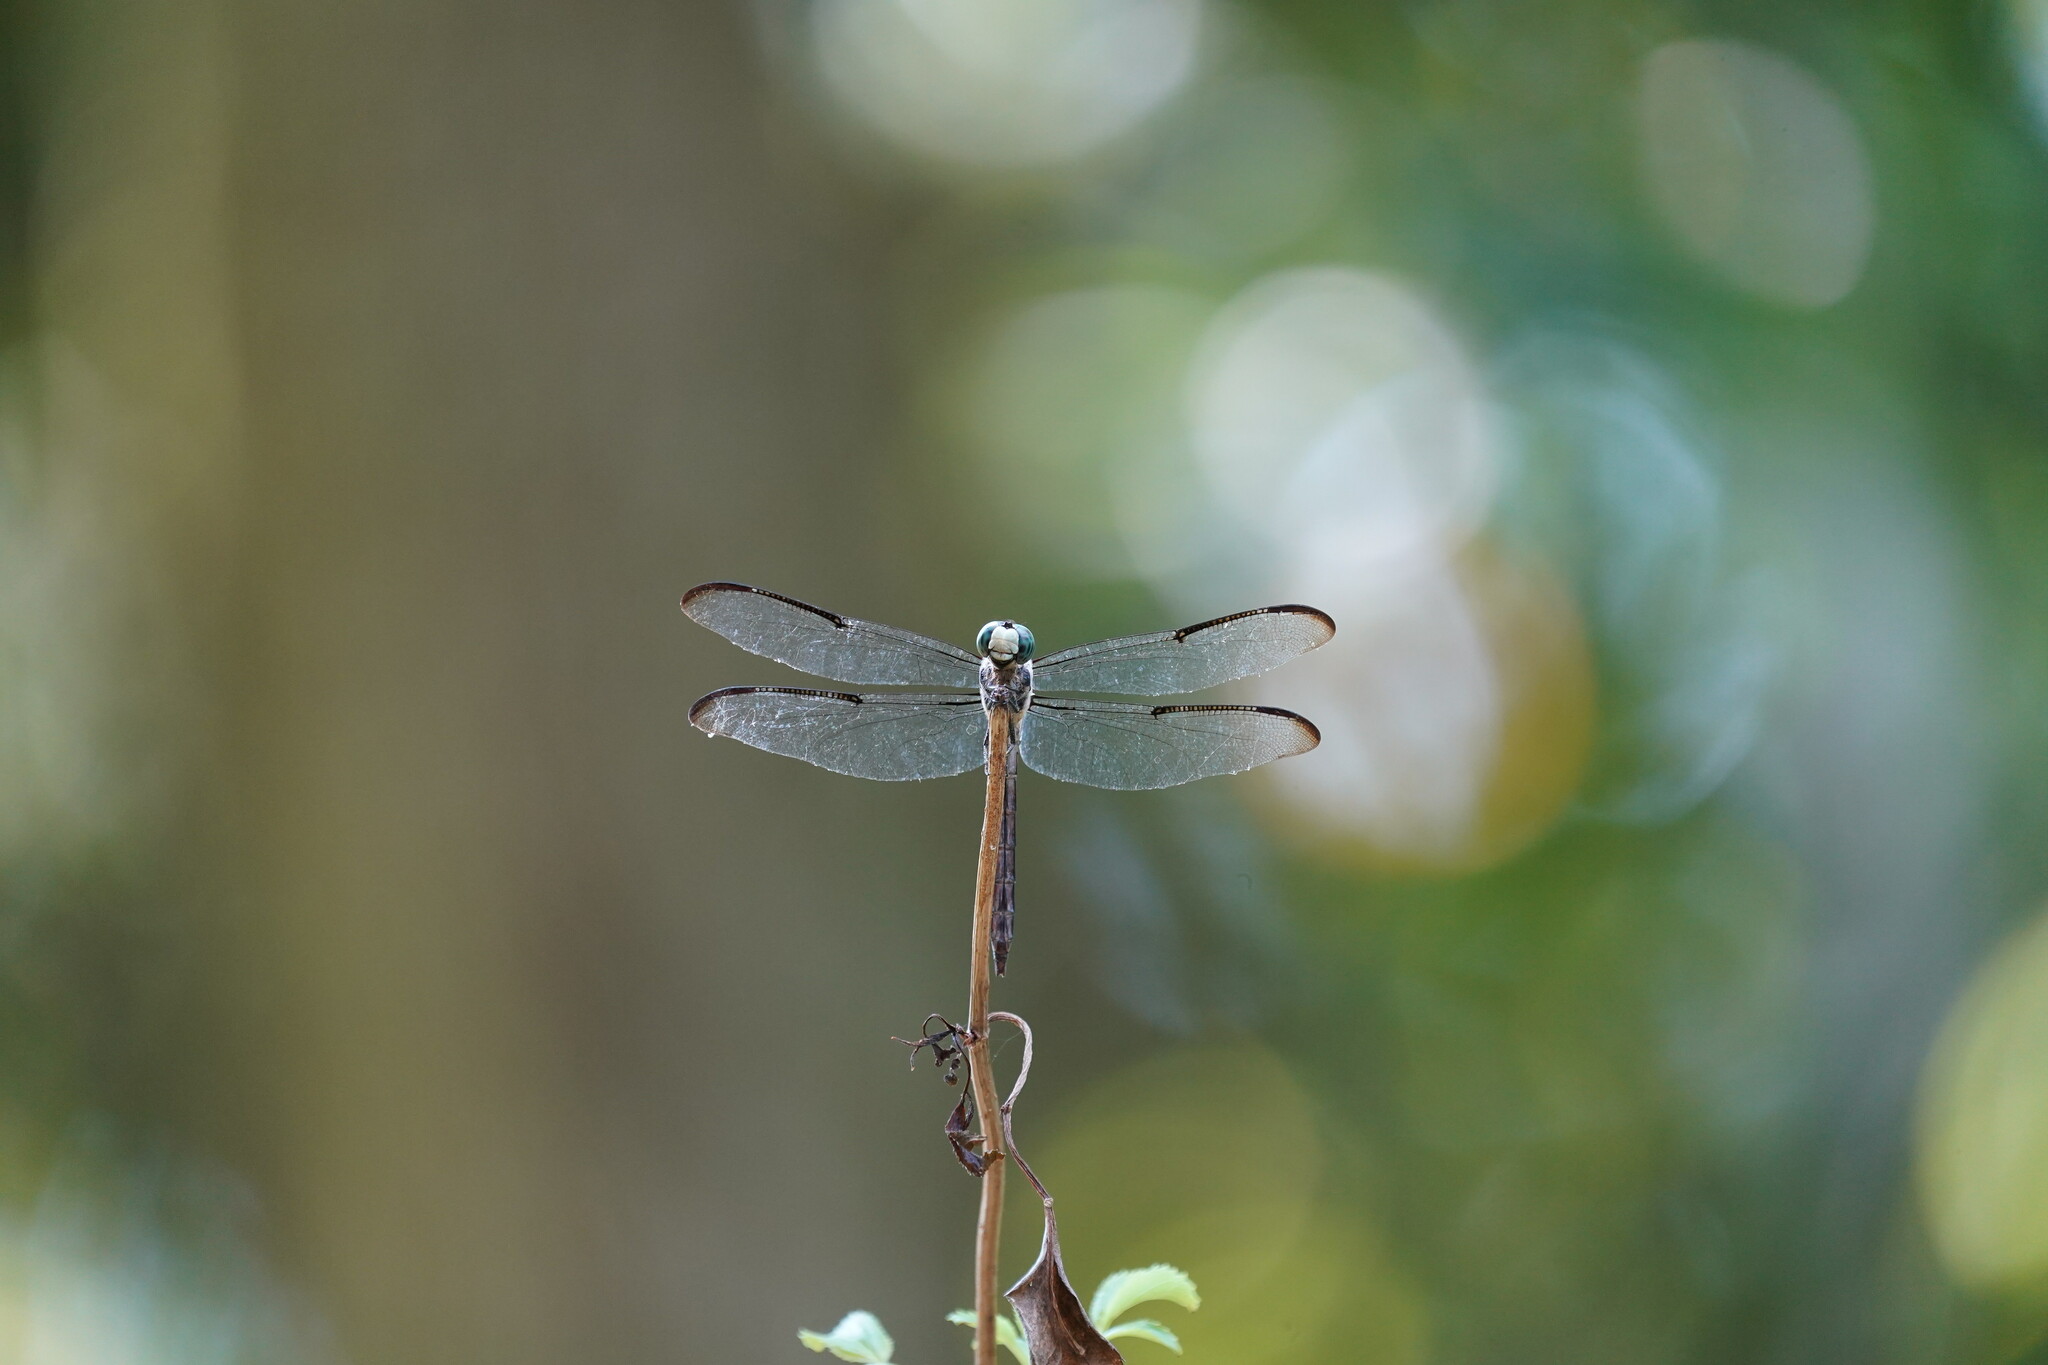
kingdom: Animalia
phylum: Arthropoda
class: Insecta
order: Odonata
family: Libellulidae
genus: Libellula
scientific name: Libellula vibrans
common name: Great blue skimmer
